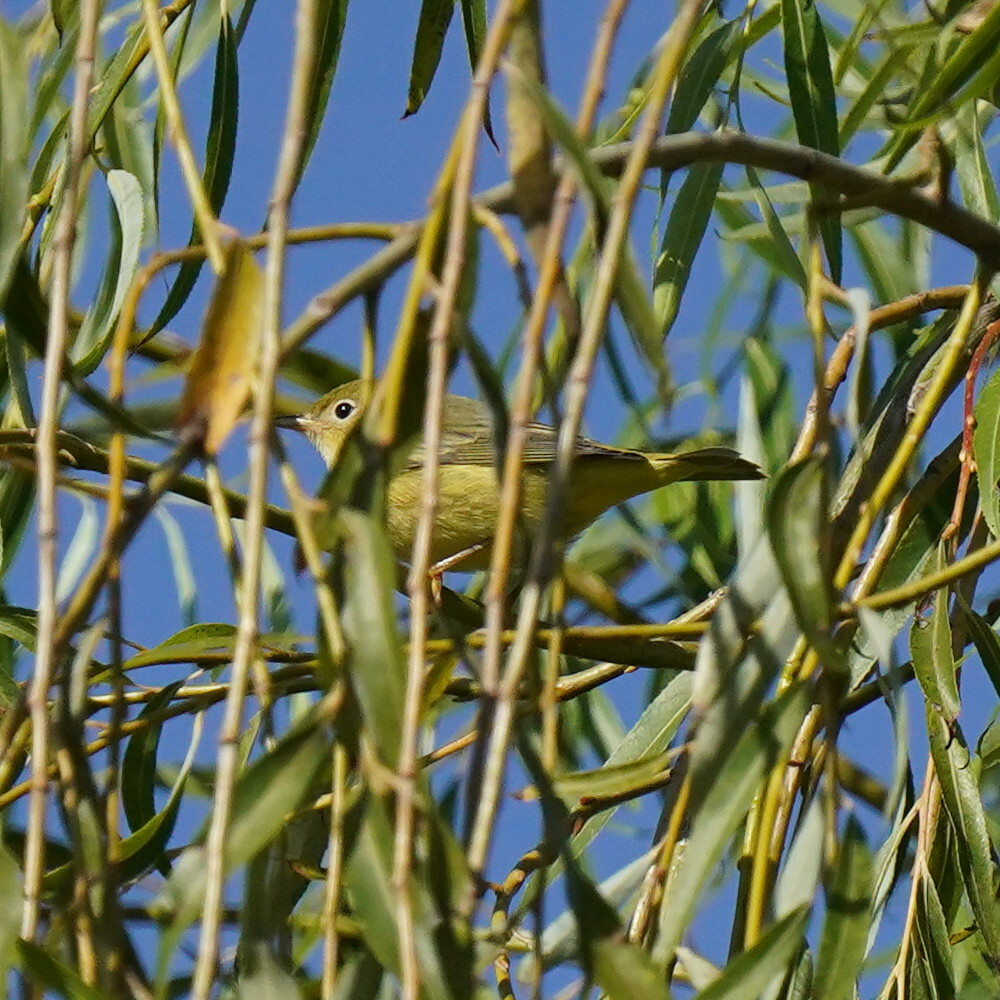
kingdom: Animalia
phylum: Chordata
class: Aves
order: Passeriformes
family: Parulidae
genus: Setophaga
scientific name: Setophaga petechia
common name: Yellow warbler
